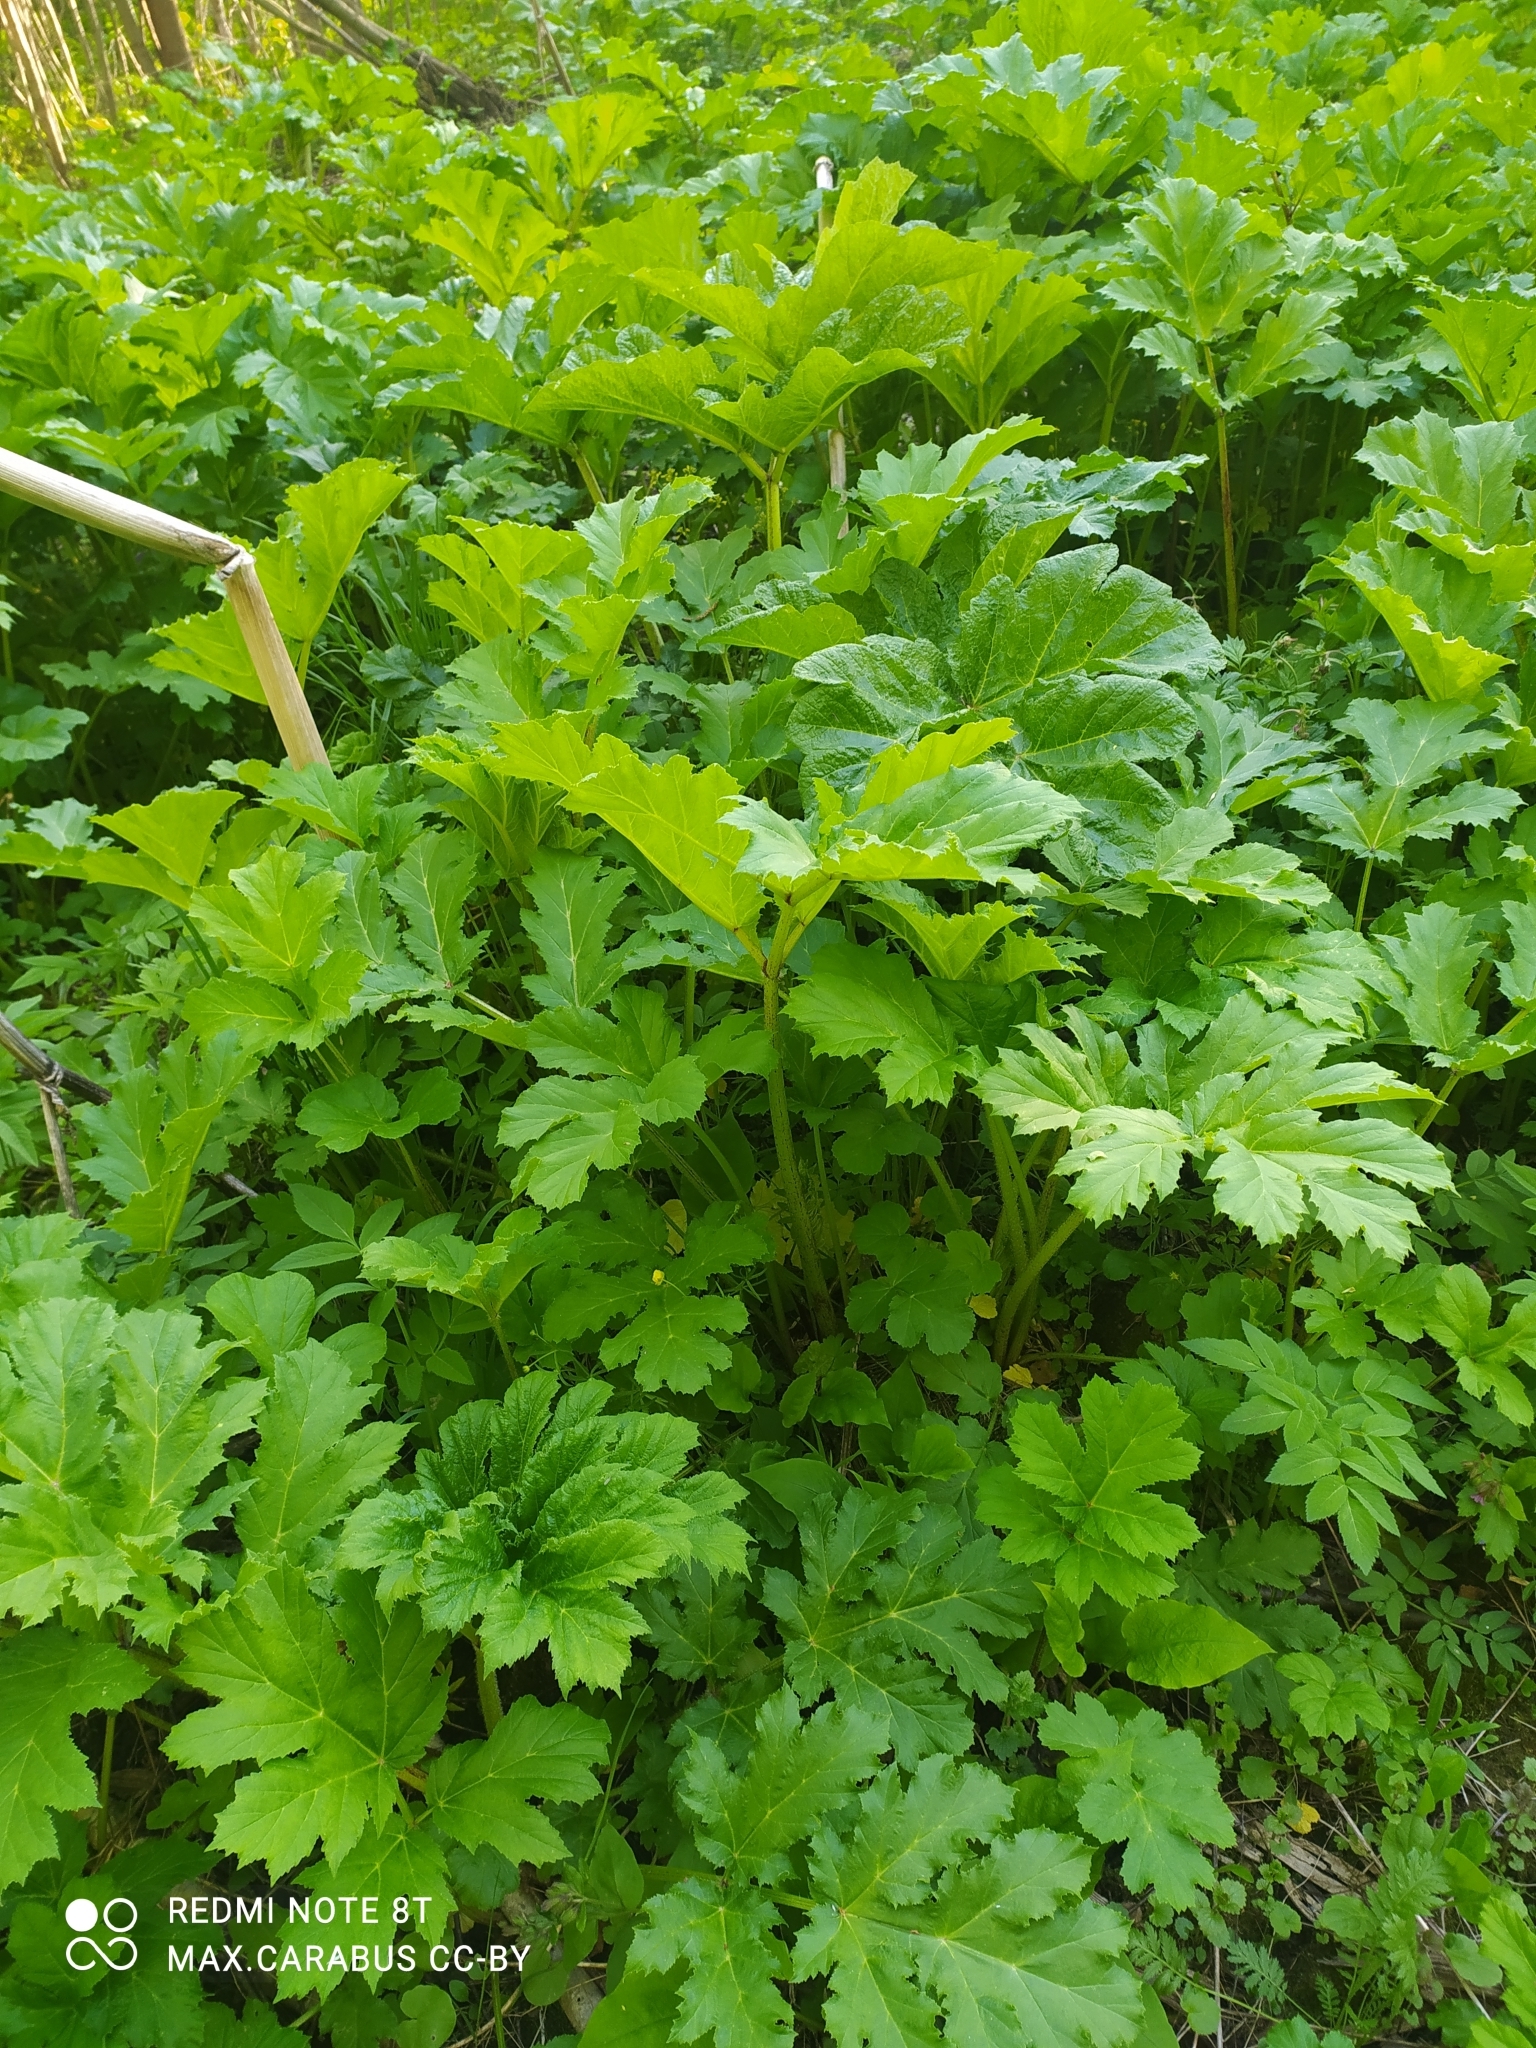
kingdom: Plantae
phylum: Tracheophyta
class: Magnoliopsida
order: Apiales
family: Apiaceae
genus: Heracleum
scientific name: Heracleum sosnowskyi
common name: Sosnowsky's hogweed
